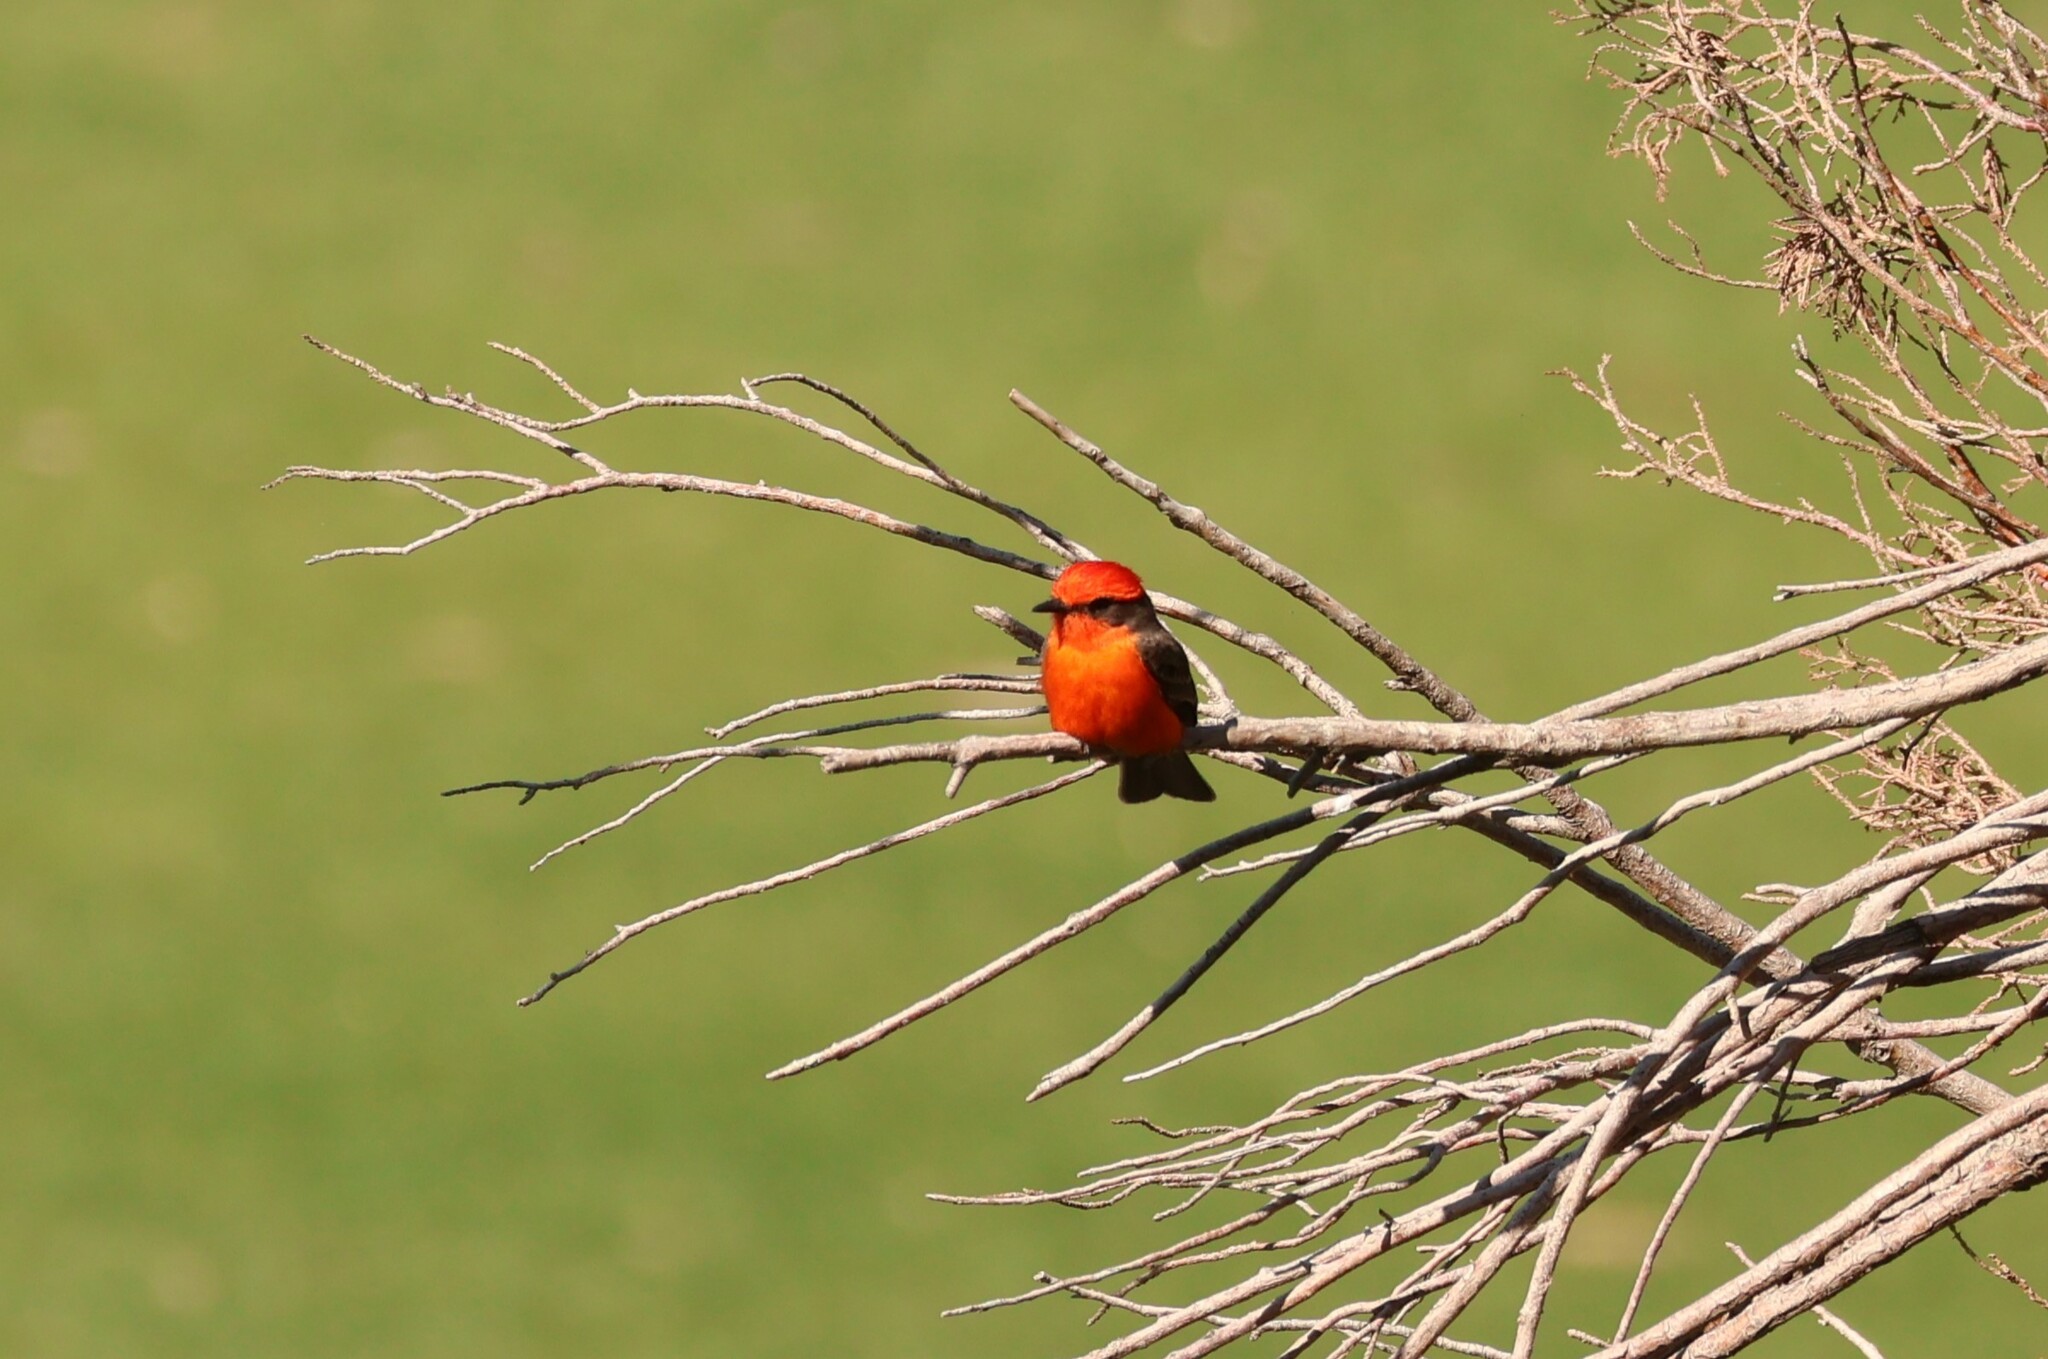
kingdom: Animalia
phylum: Chordata
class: Aves
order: Passeriformes
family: Tyrannidae
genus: Pyrocephalus
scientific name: Pyrocephalus rubinus
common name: Vermilion flycatcher
